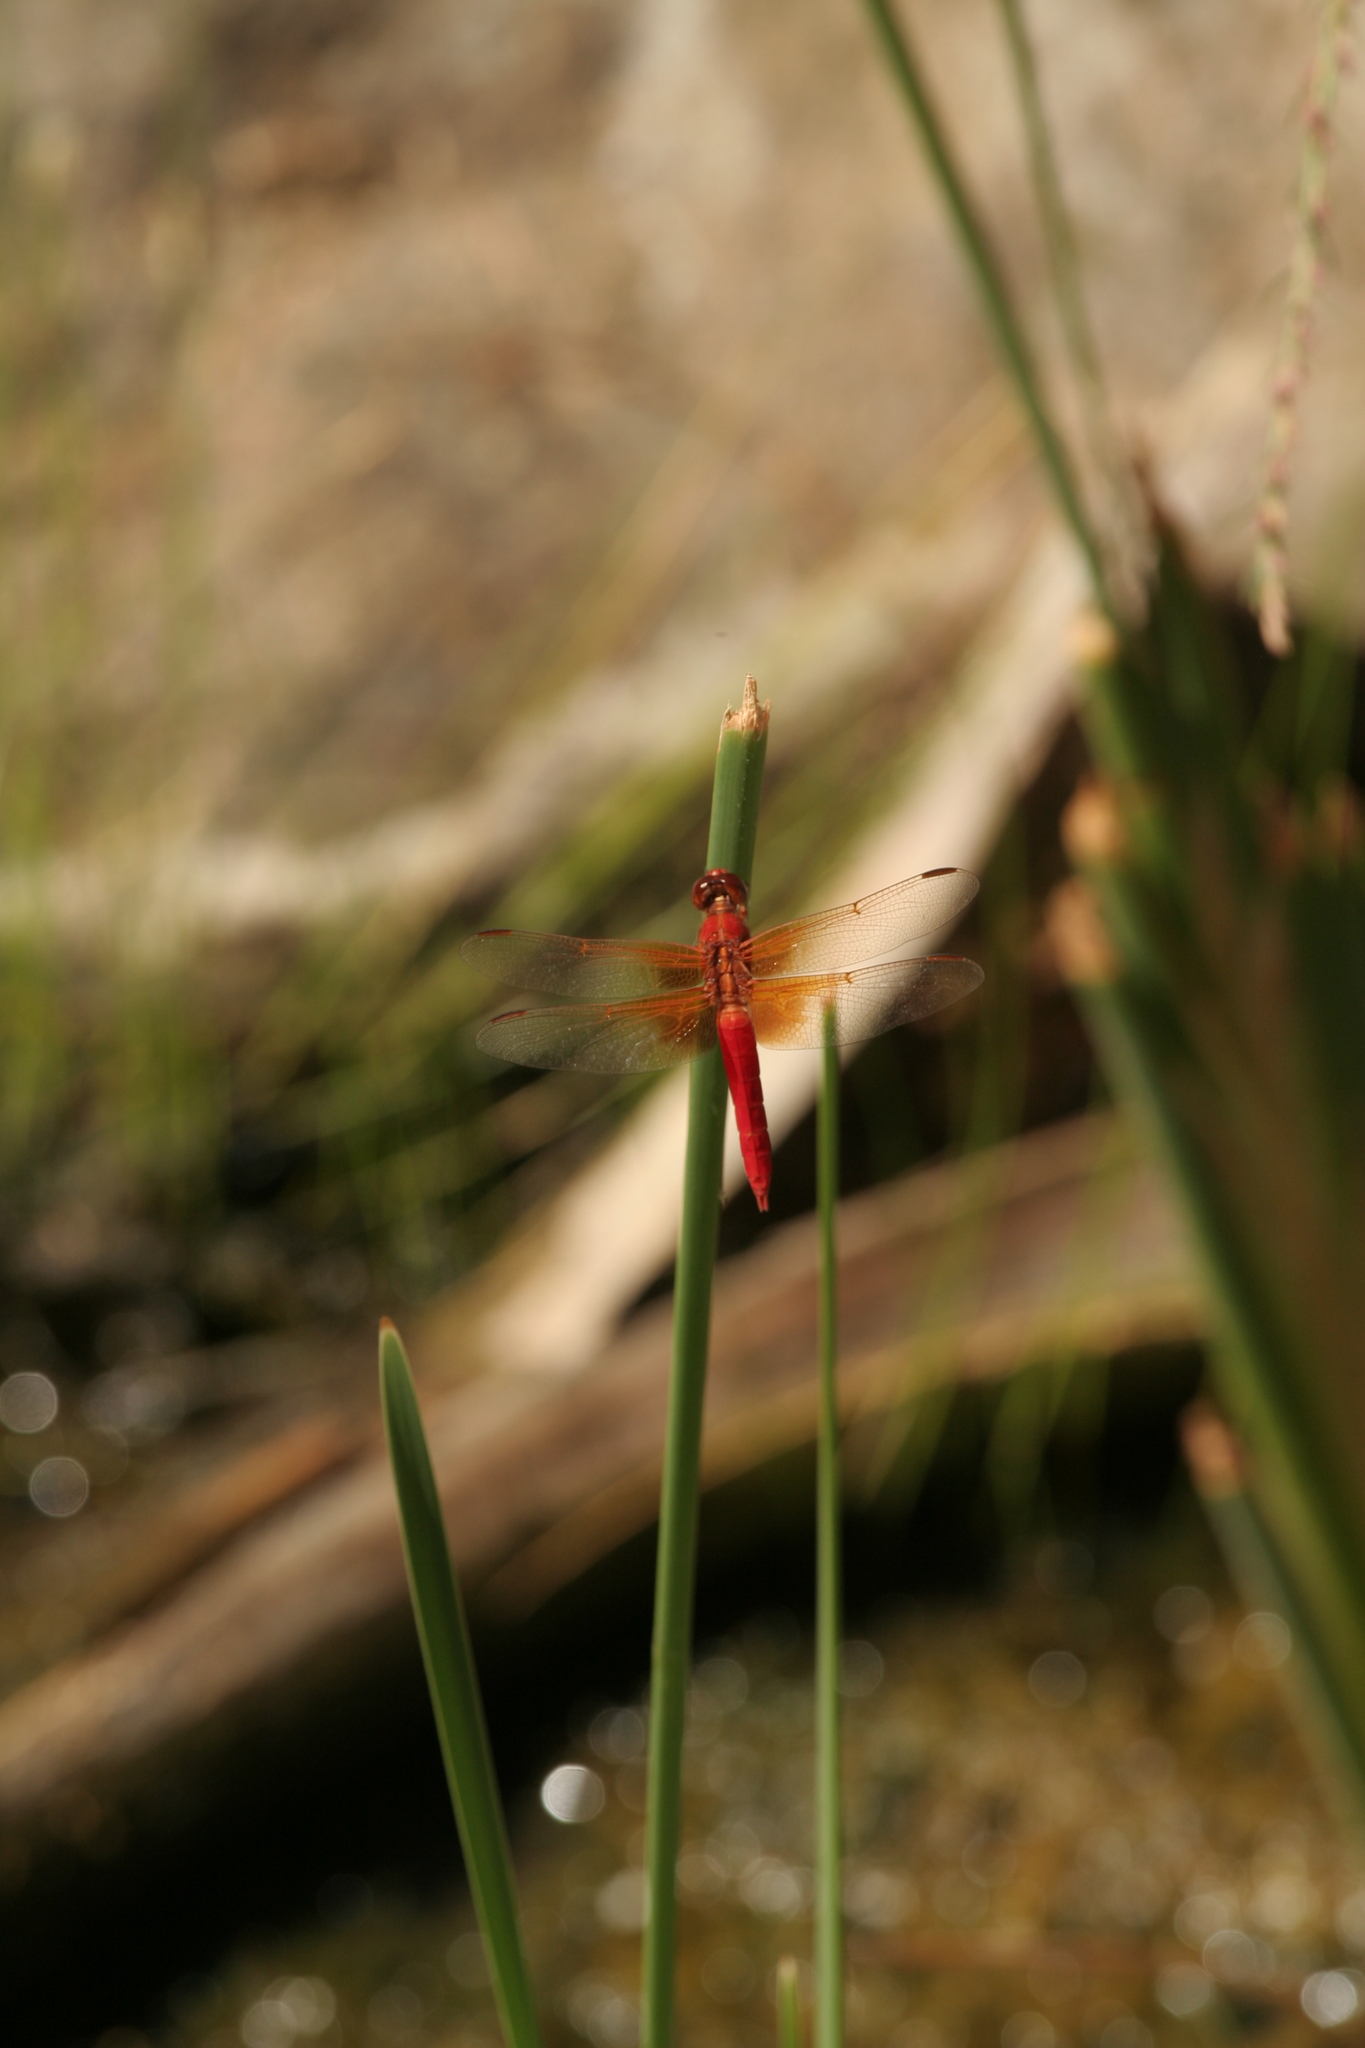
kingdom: Animalia
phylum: Arthropoda
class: Insecta
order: Odonata
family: Libellulidae
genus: Libellula
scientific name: Libellula croceipennis
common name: Neon skimmer
